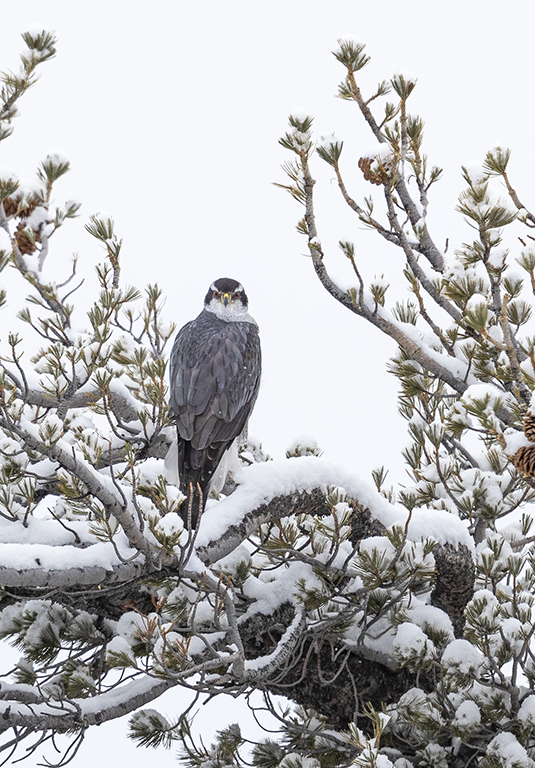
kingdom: Animalia
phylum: Chordata
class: Aves
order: Accipitriformes
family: Accipitridae
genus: Accipiter
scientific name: Accipiter gentilis
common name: Northern goshawk
